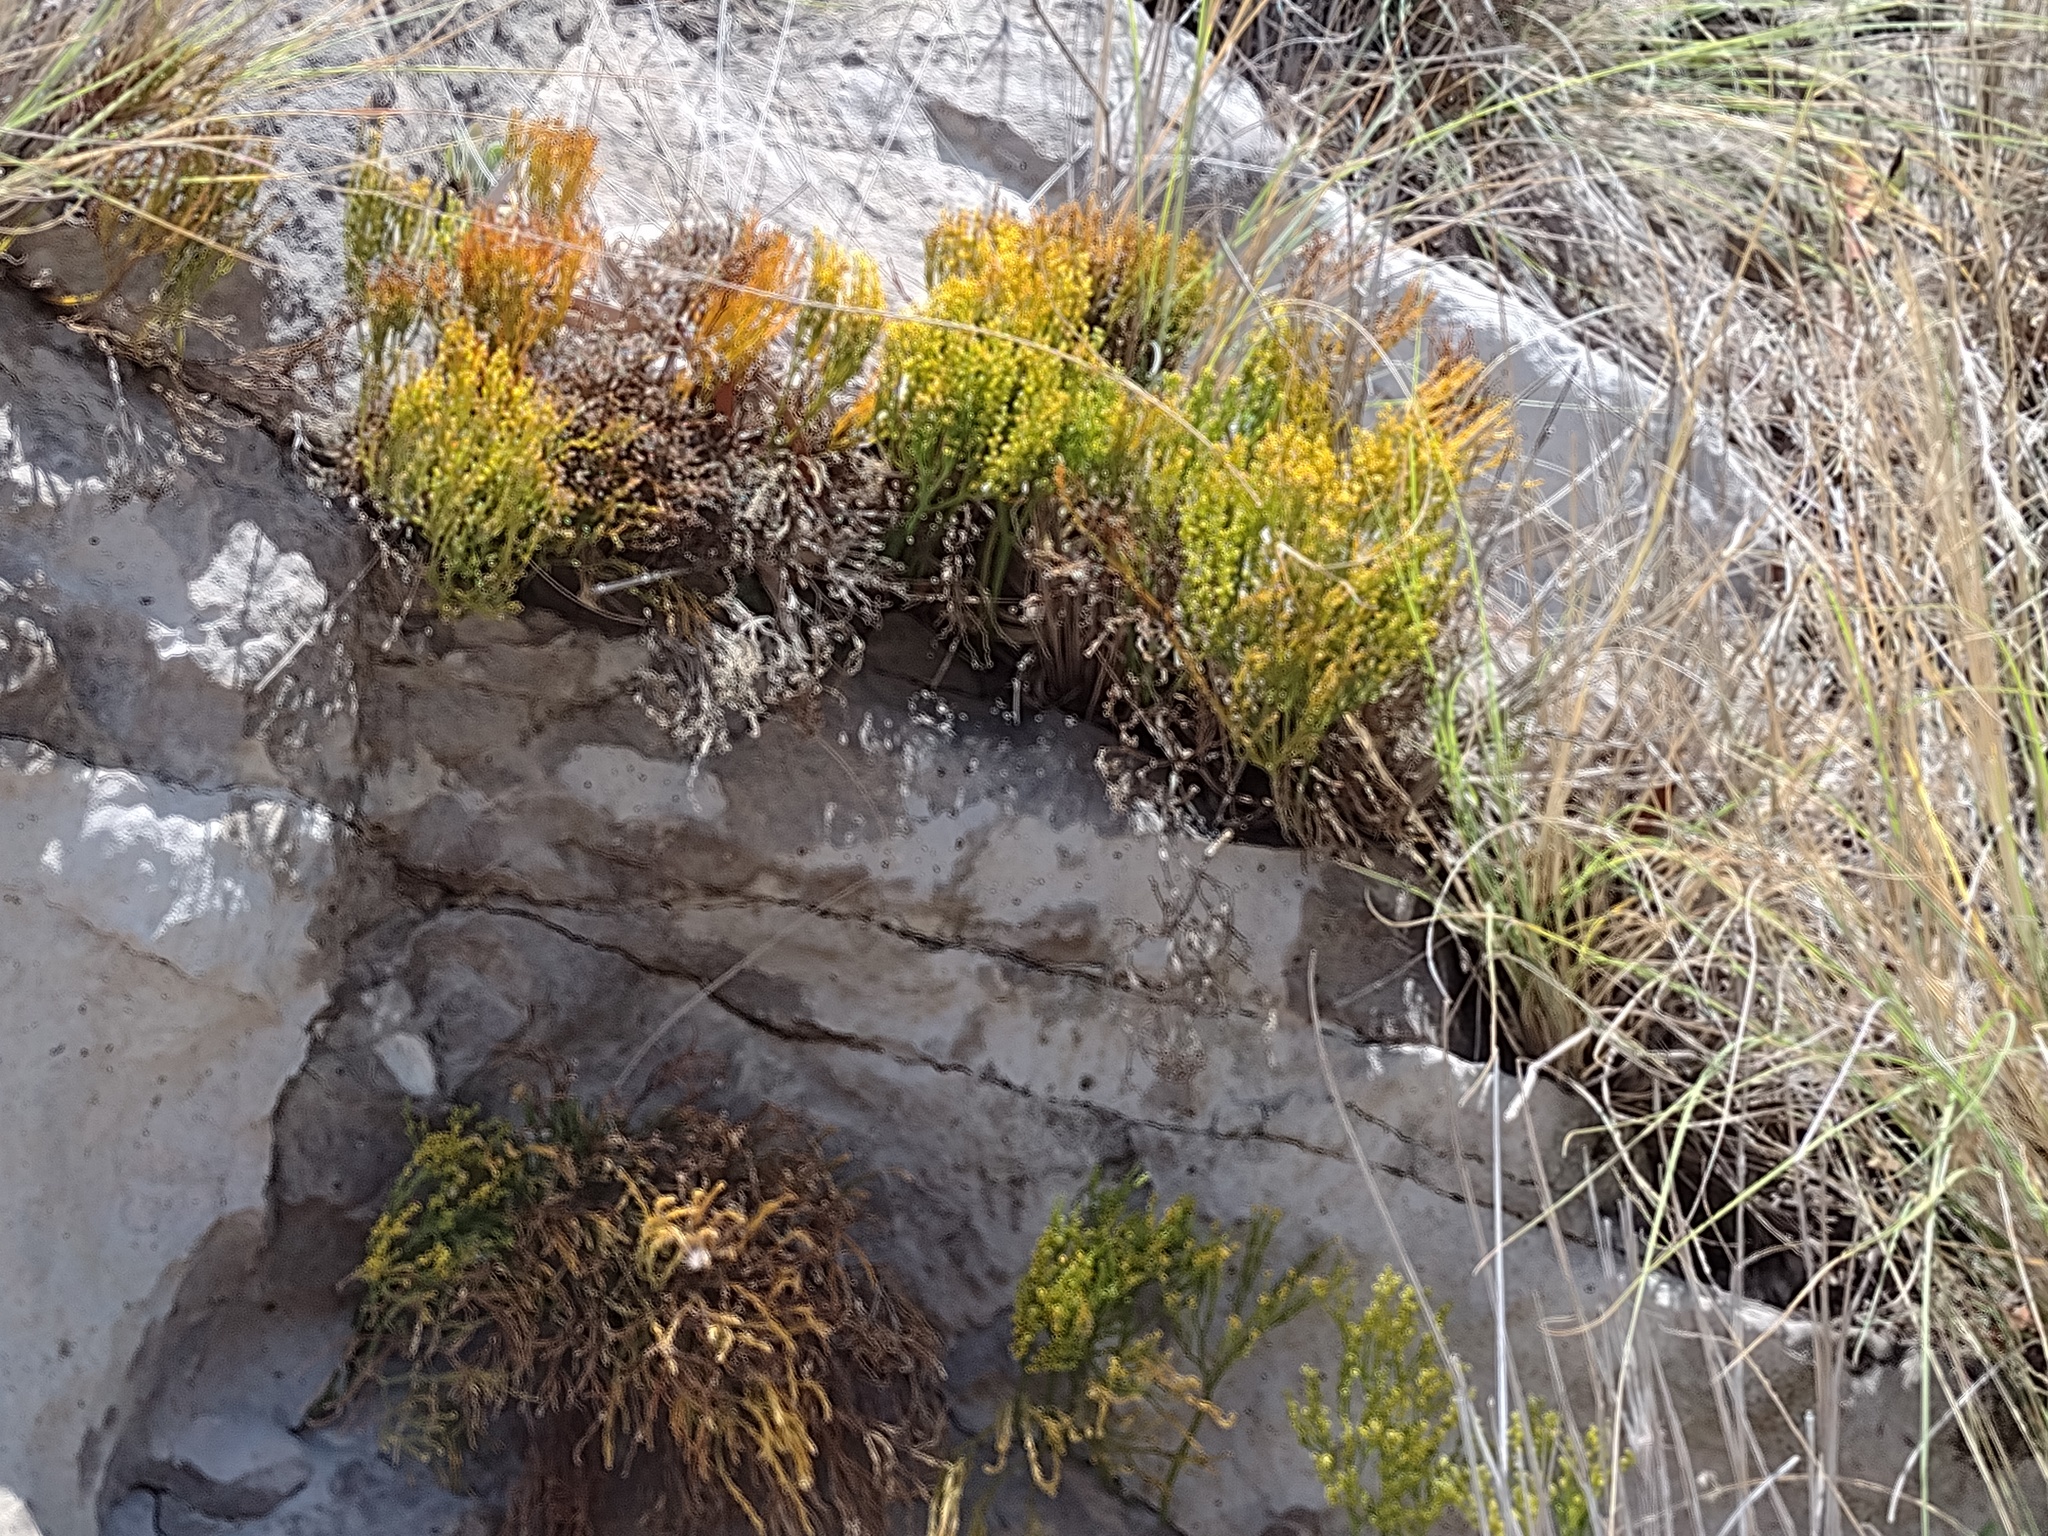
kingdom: Plantae
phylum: Tracheophyta
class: Polypodiopsida
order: Psilotales
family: Psilotaceae
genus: Psilotum
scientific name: Psilotum nudum
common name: Skeleton fork fern
